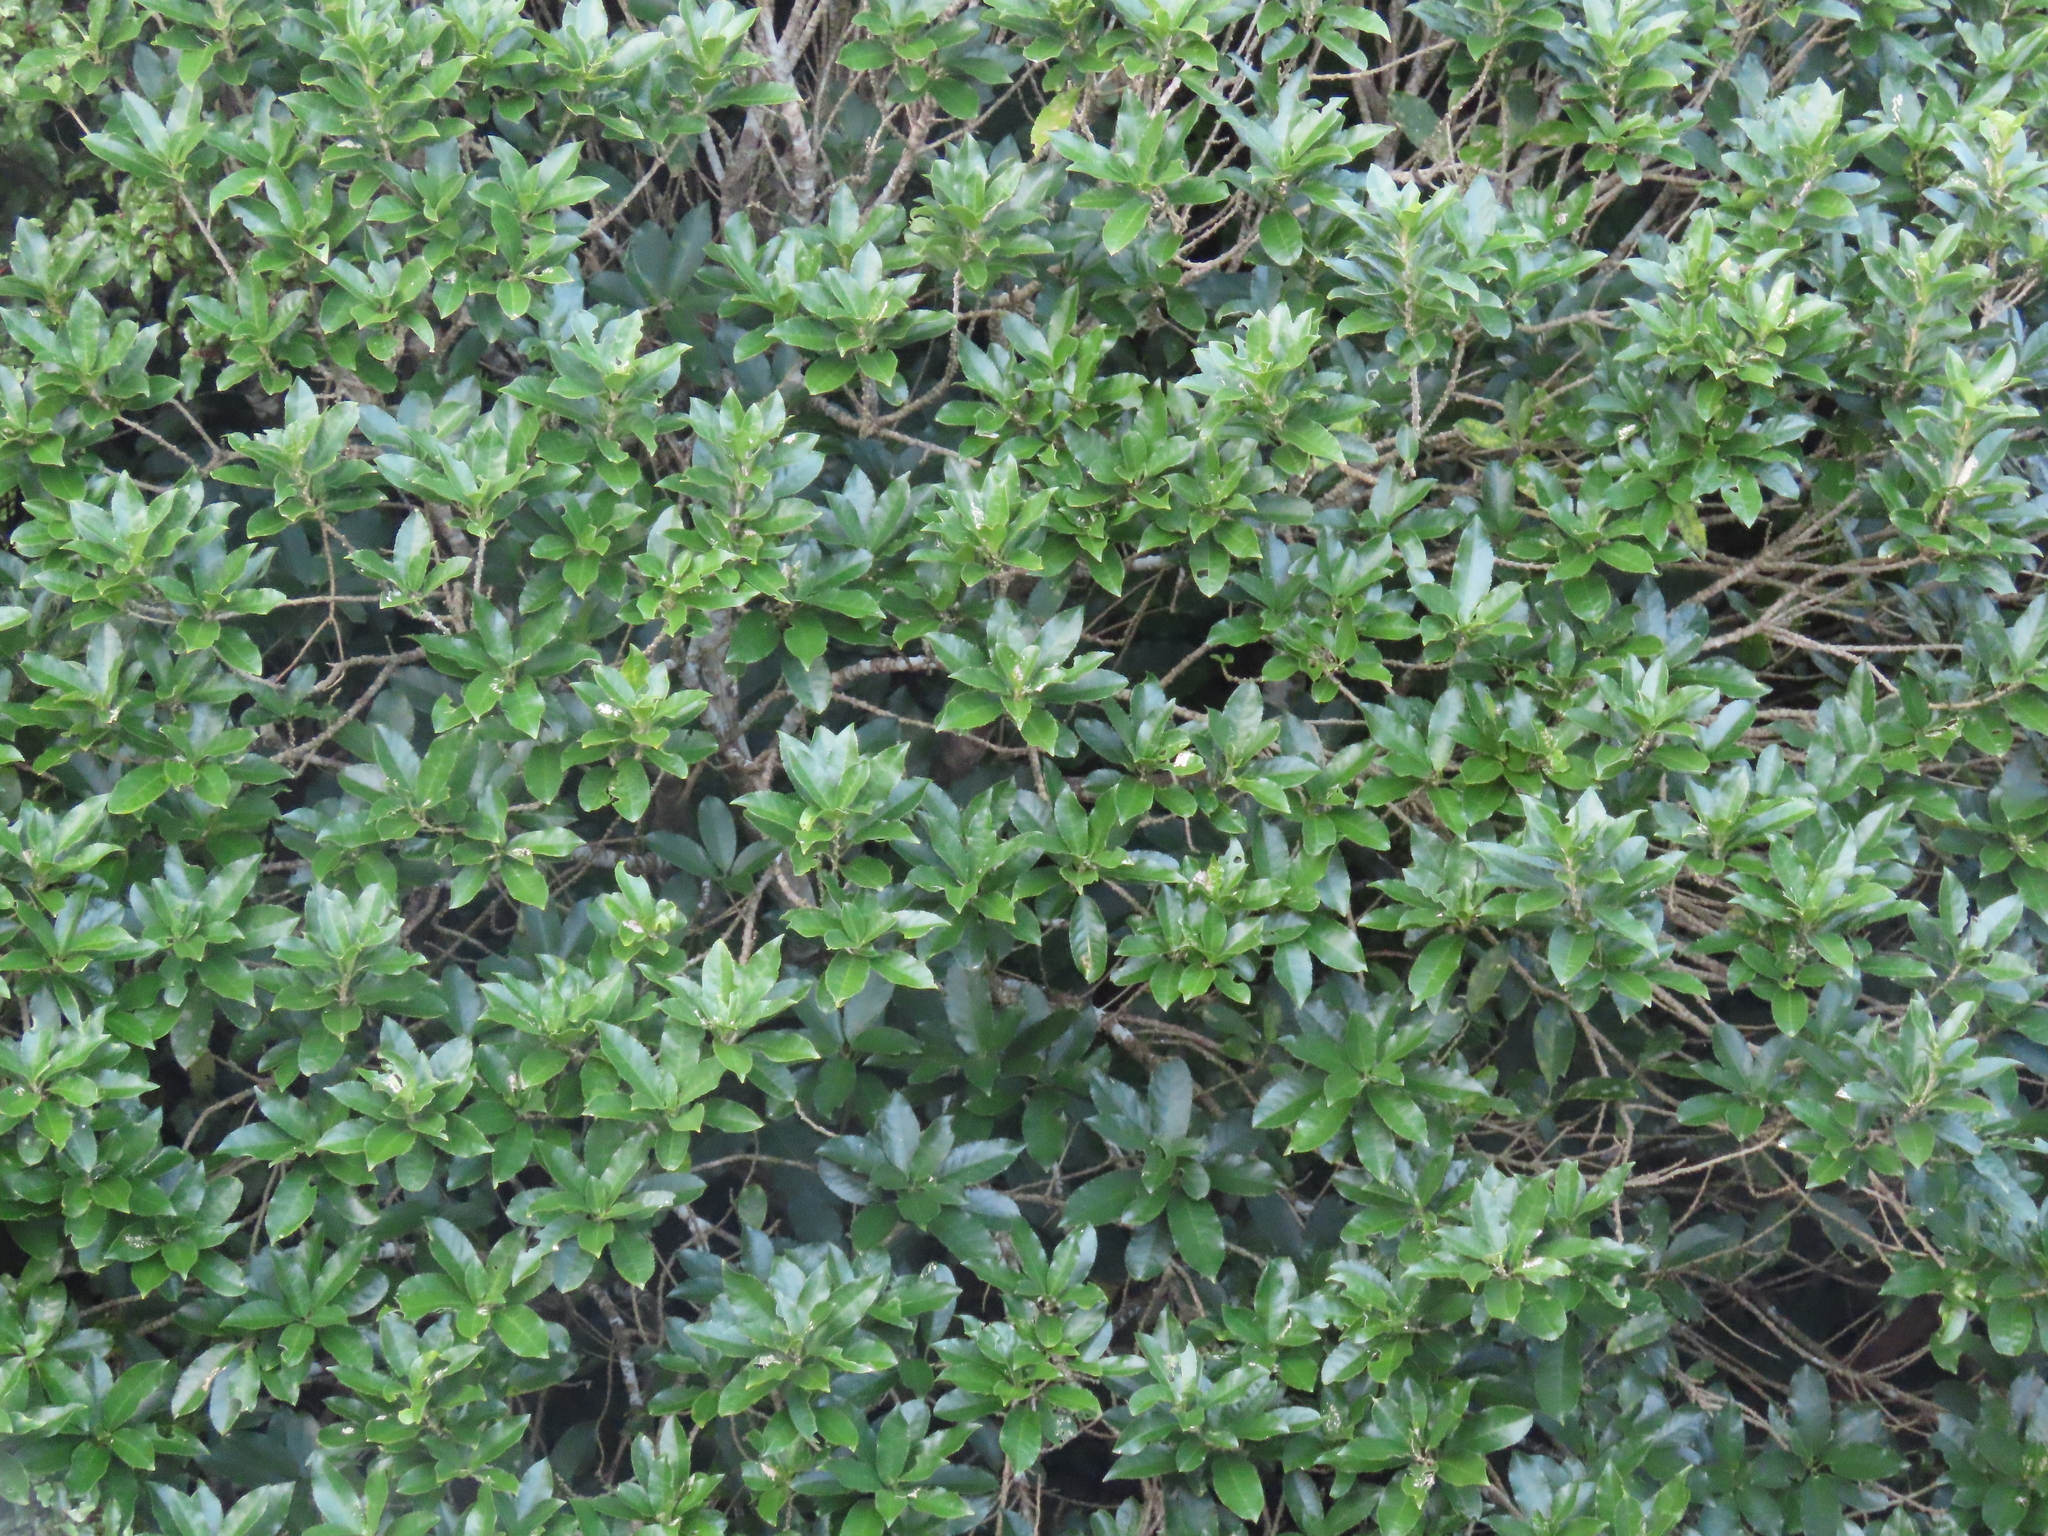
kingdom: Plantae
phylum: Tracheophyta
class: Magnoliopsida
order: Malpighiales
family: Violaceae
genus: Melicytus
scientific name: Melicytus ramiflorus
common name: Mahoe
